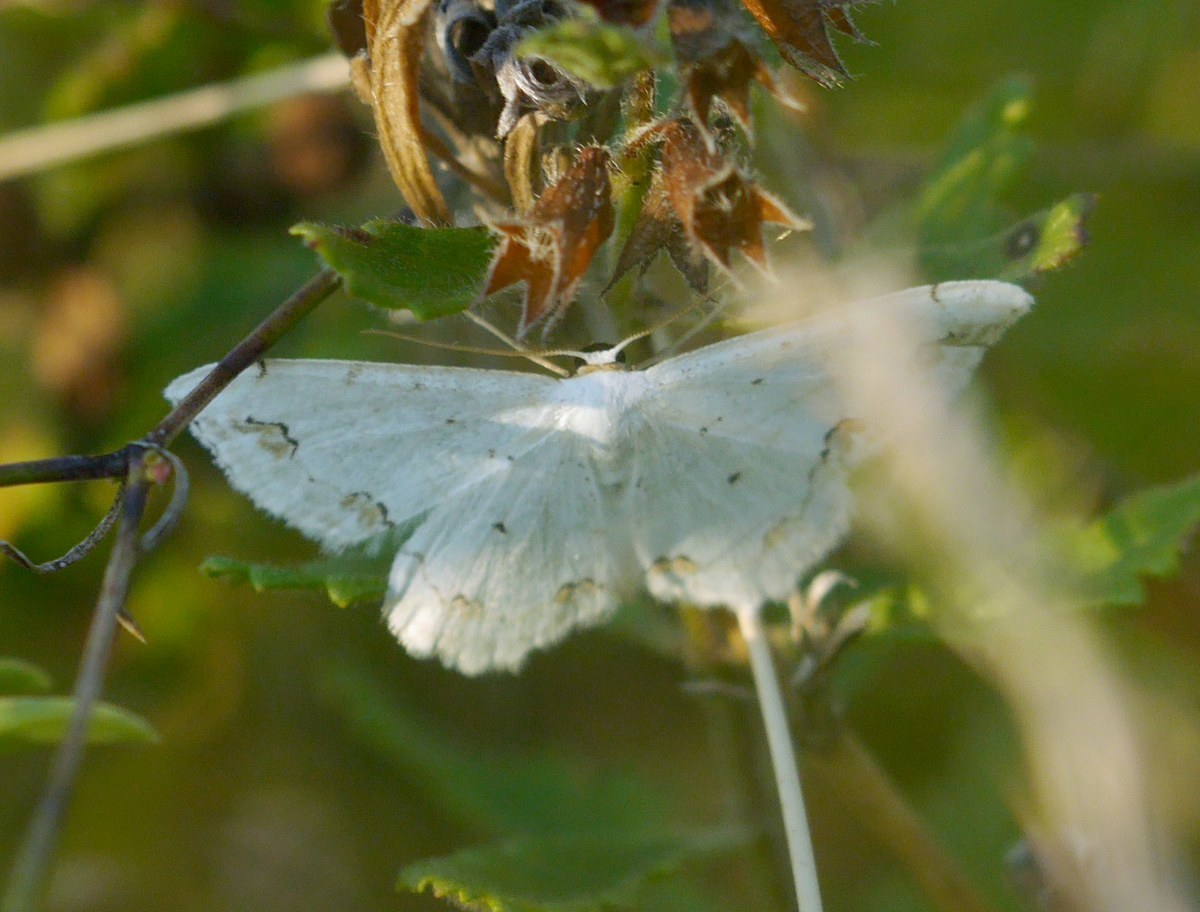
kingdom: Animalia
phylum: Arthropoda
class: Insecta
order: Lepidoptera
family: Geometridae
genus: Scopula
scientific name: Scopula ornata
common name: Lace border
